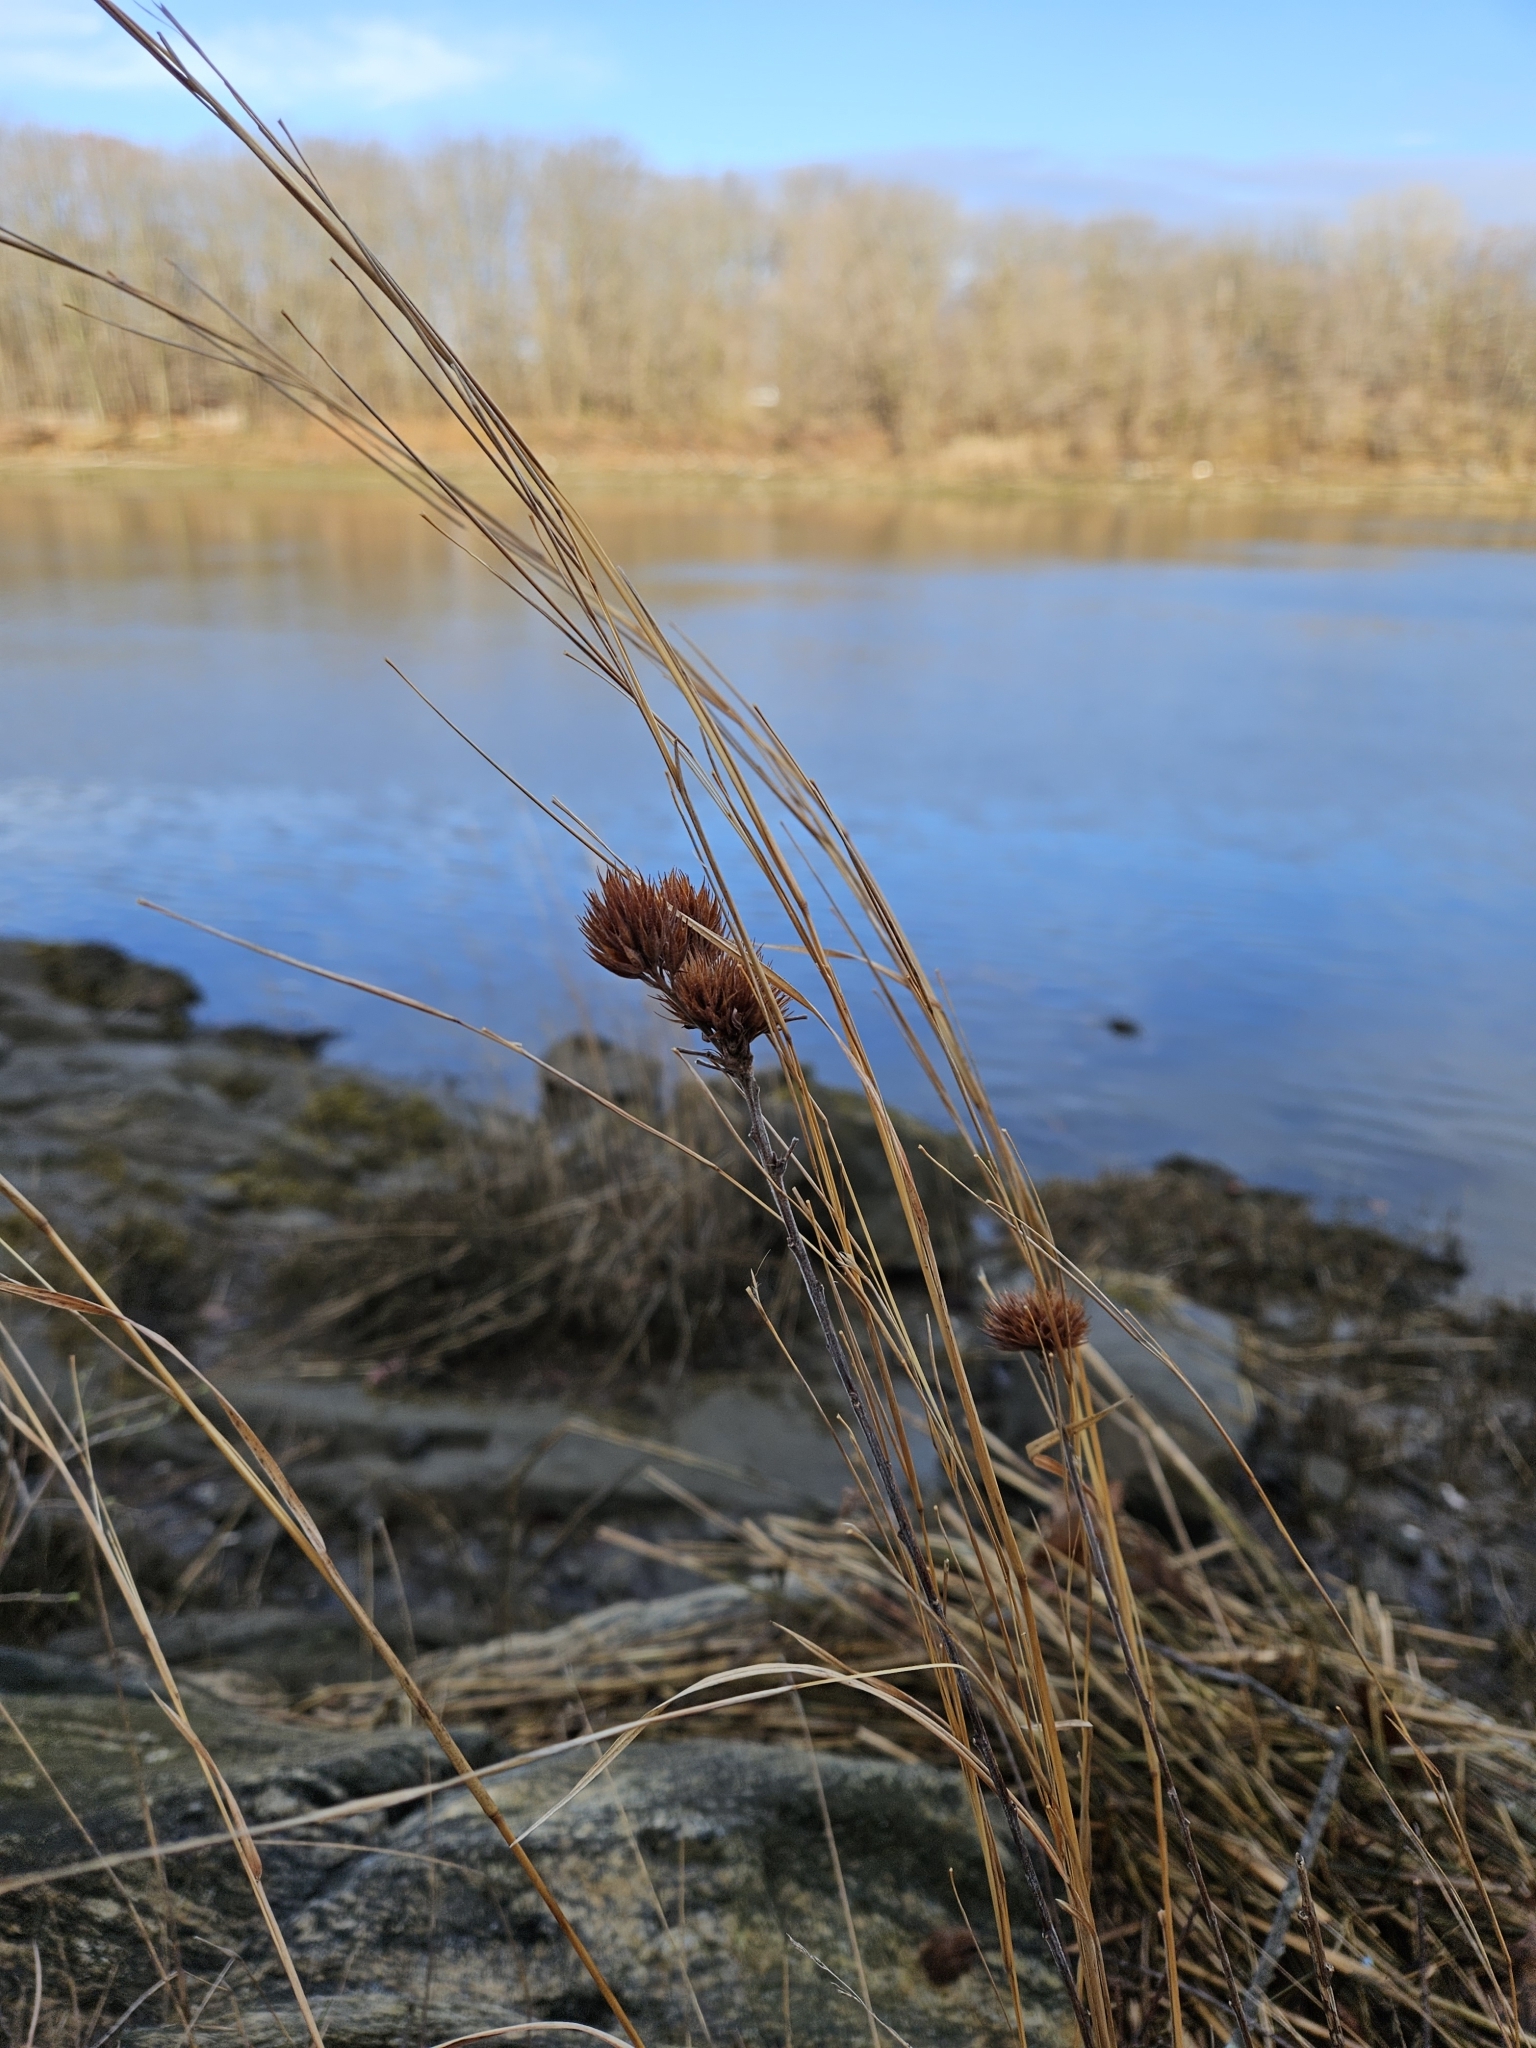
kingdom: Plantae
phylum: Tracheophyta
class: Magnoliopsida
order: Fabales
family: Fabaceae
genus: Lespedeza
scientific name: Lespedeza capitata
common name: Dusty clover
